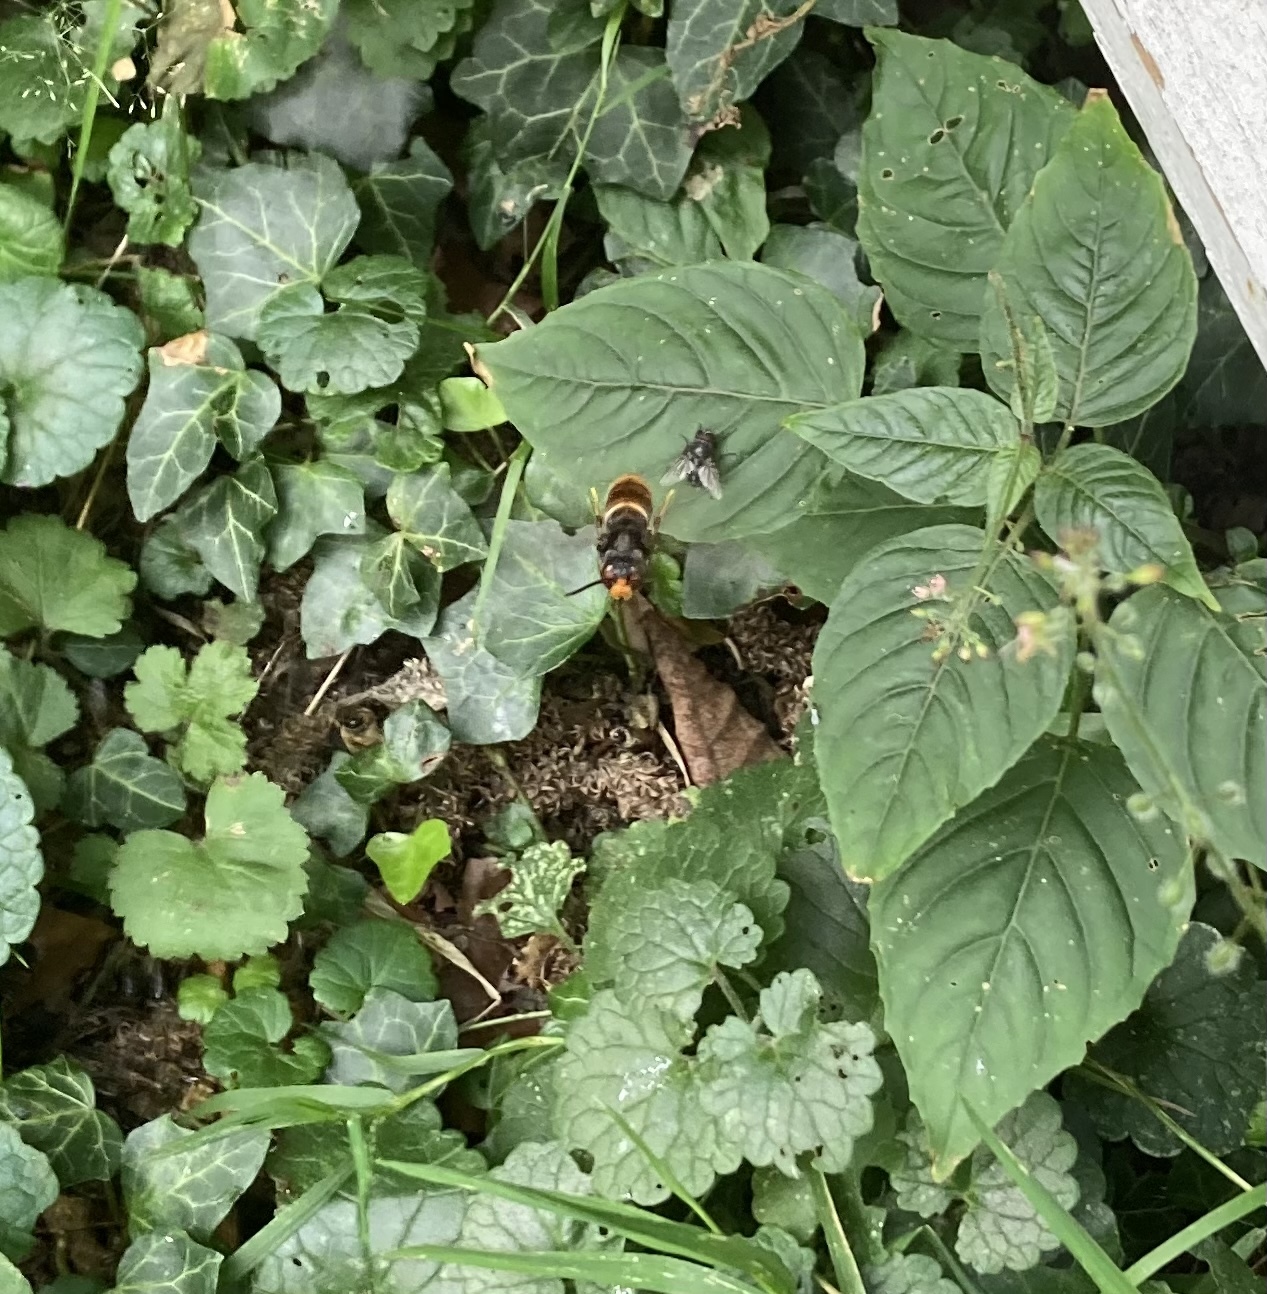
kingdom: Animalia
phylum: Arthropoda
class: Insecta
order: Hymenoptera
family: Vespidae
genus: Vespa
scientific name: Vespa velutina
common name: Asian hornet
